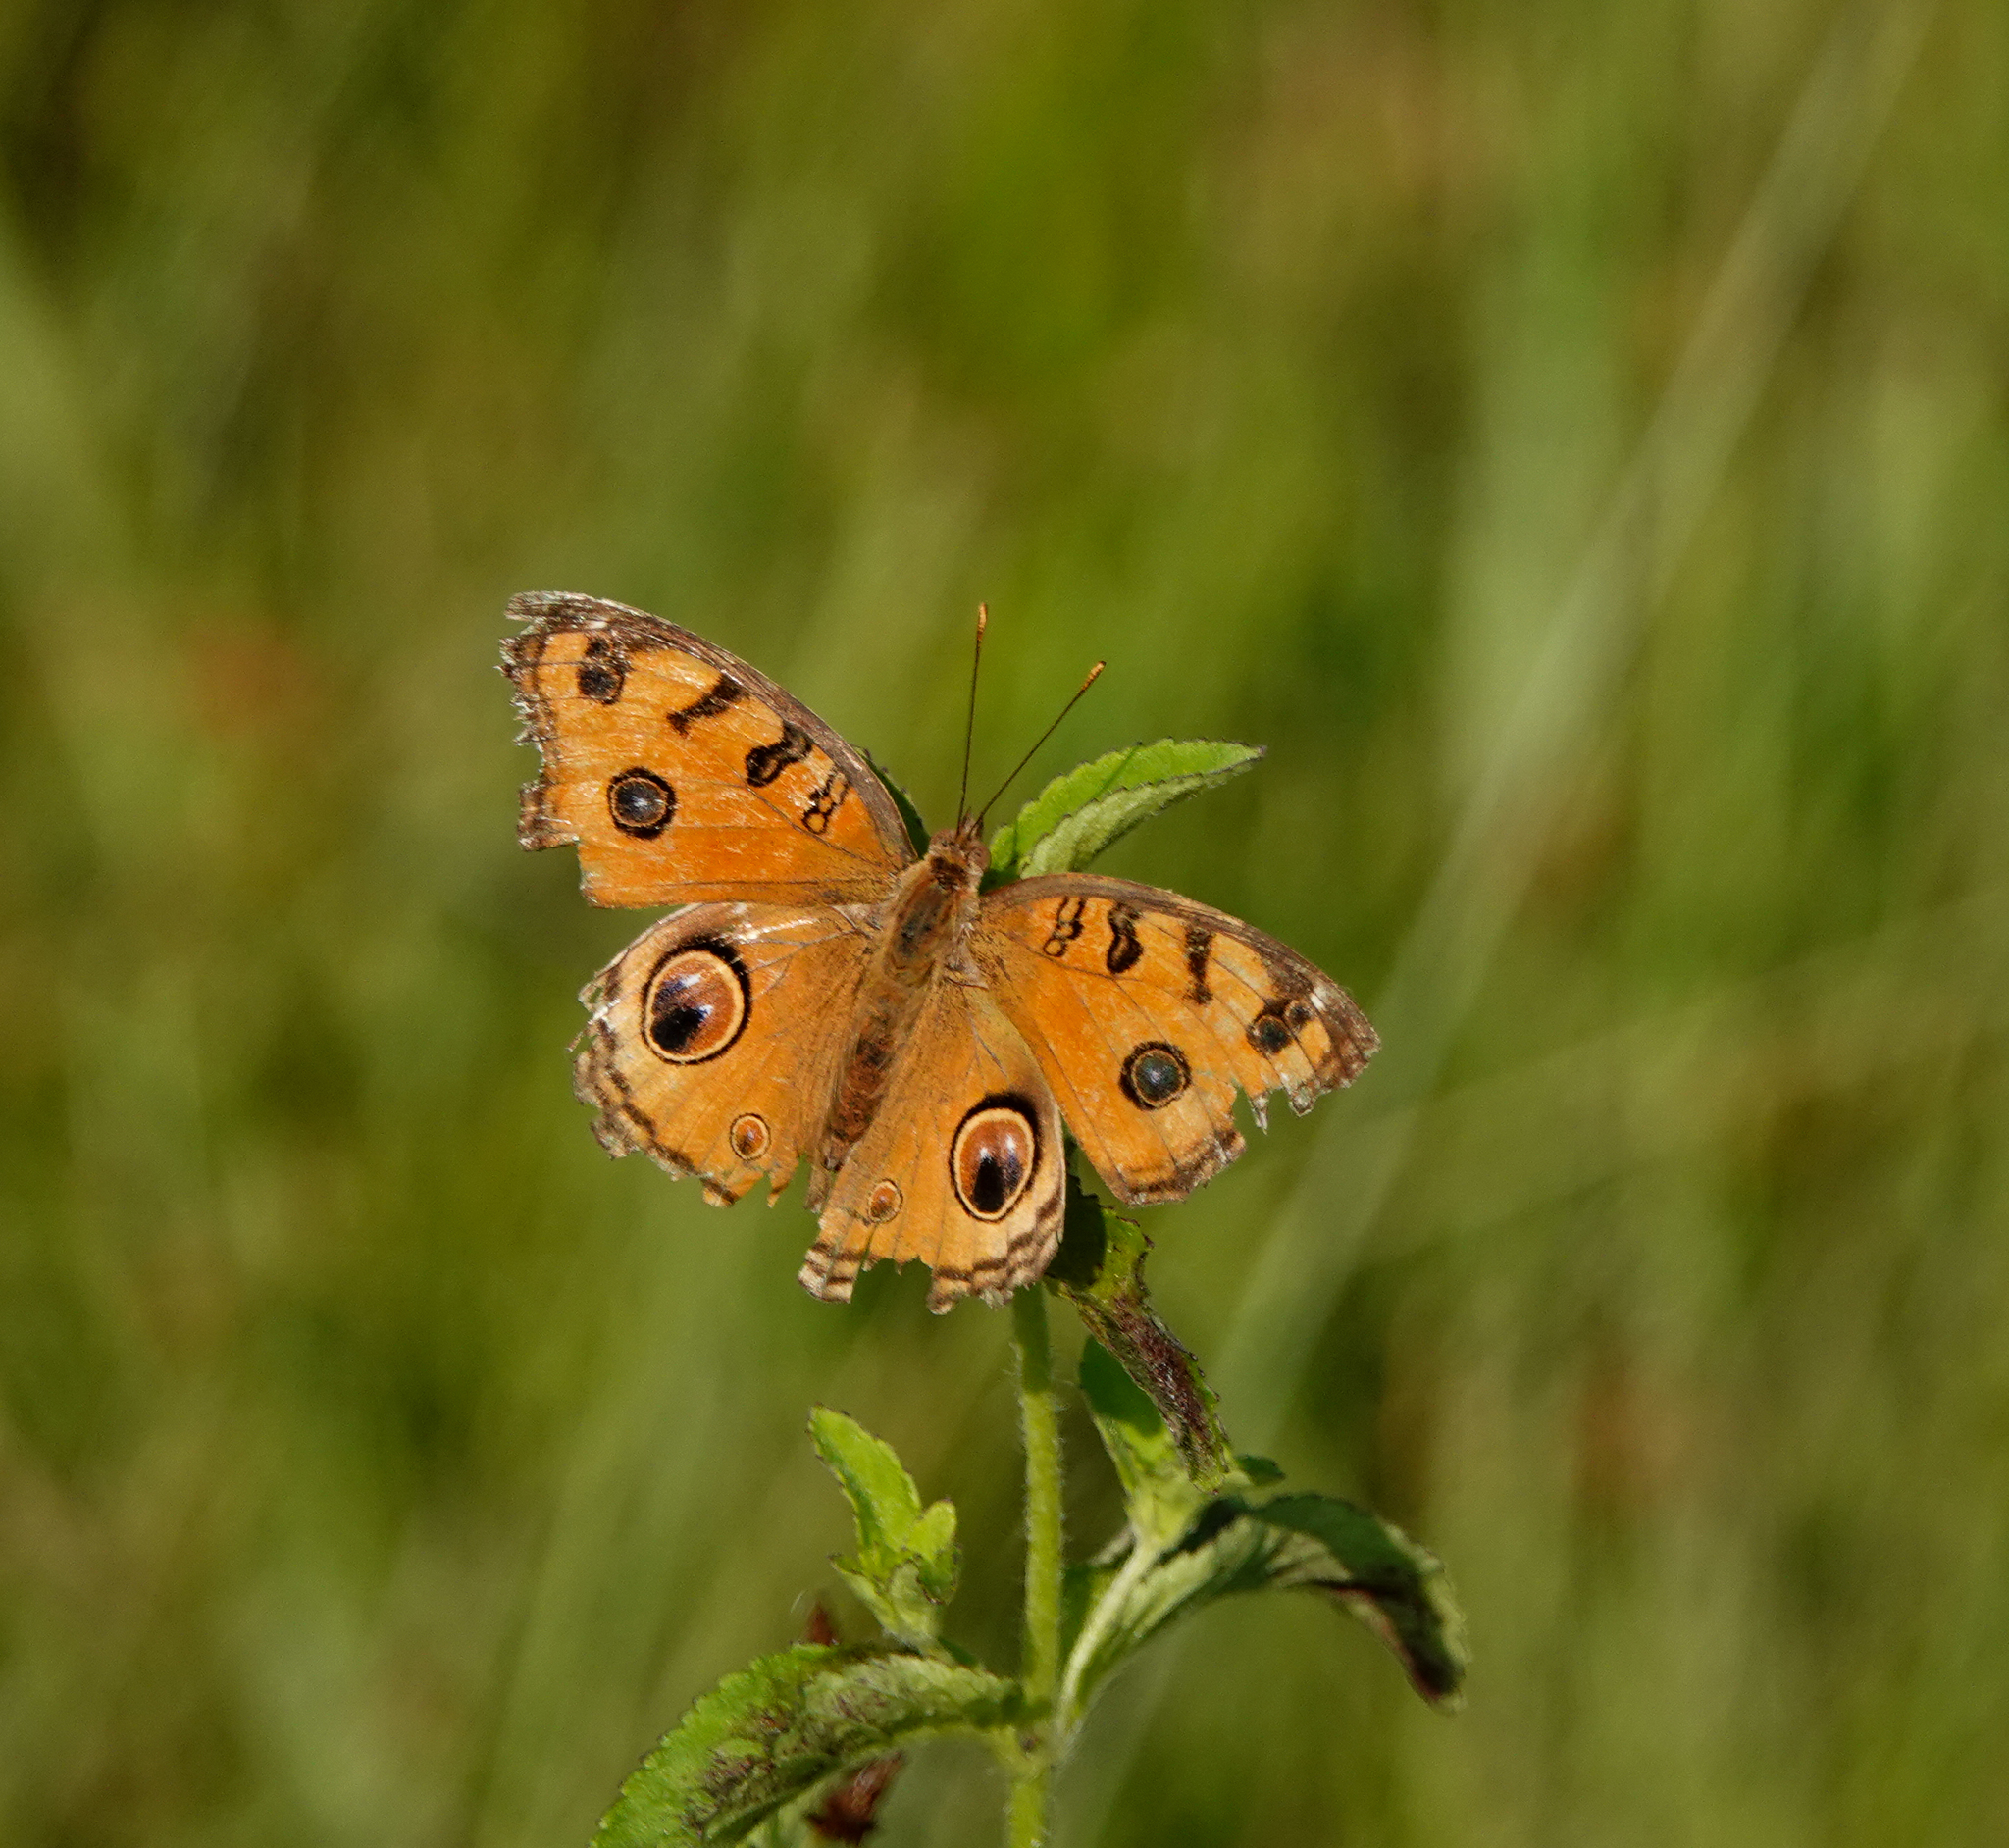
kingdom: Animalia
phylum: Arthropoda
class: Insecta
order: Lepidoptera
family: Nymphalidae
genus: Junonia
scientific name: Junonia almana
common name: Peacock pansy
